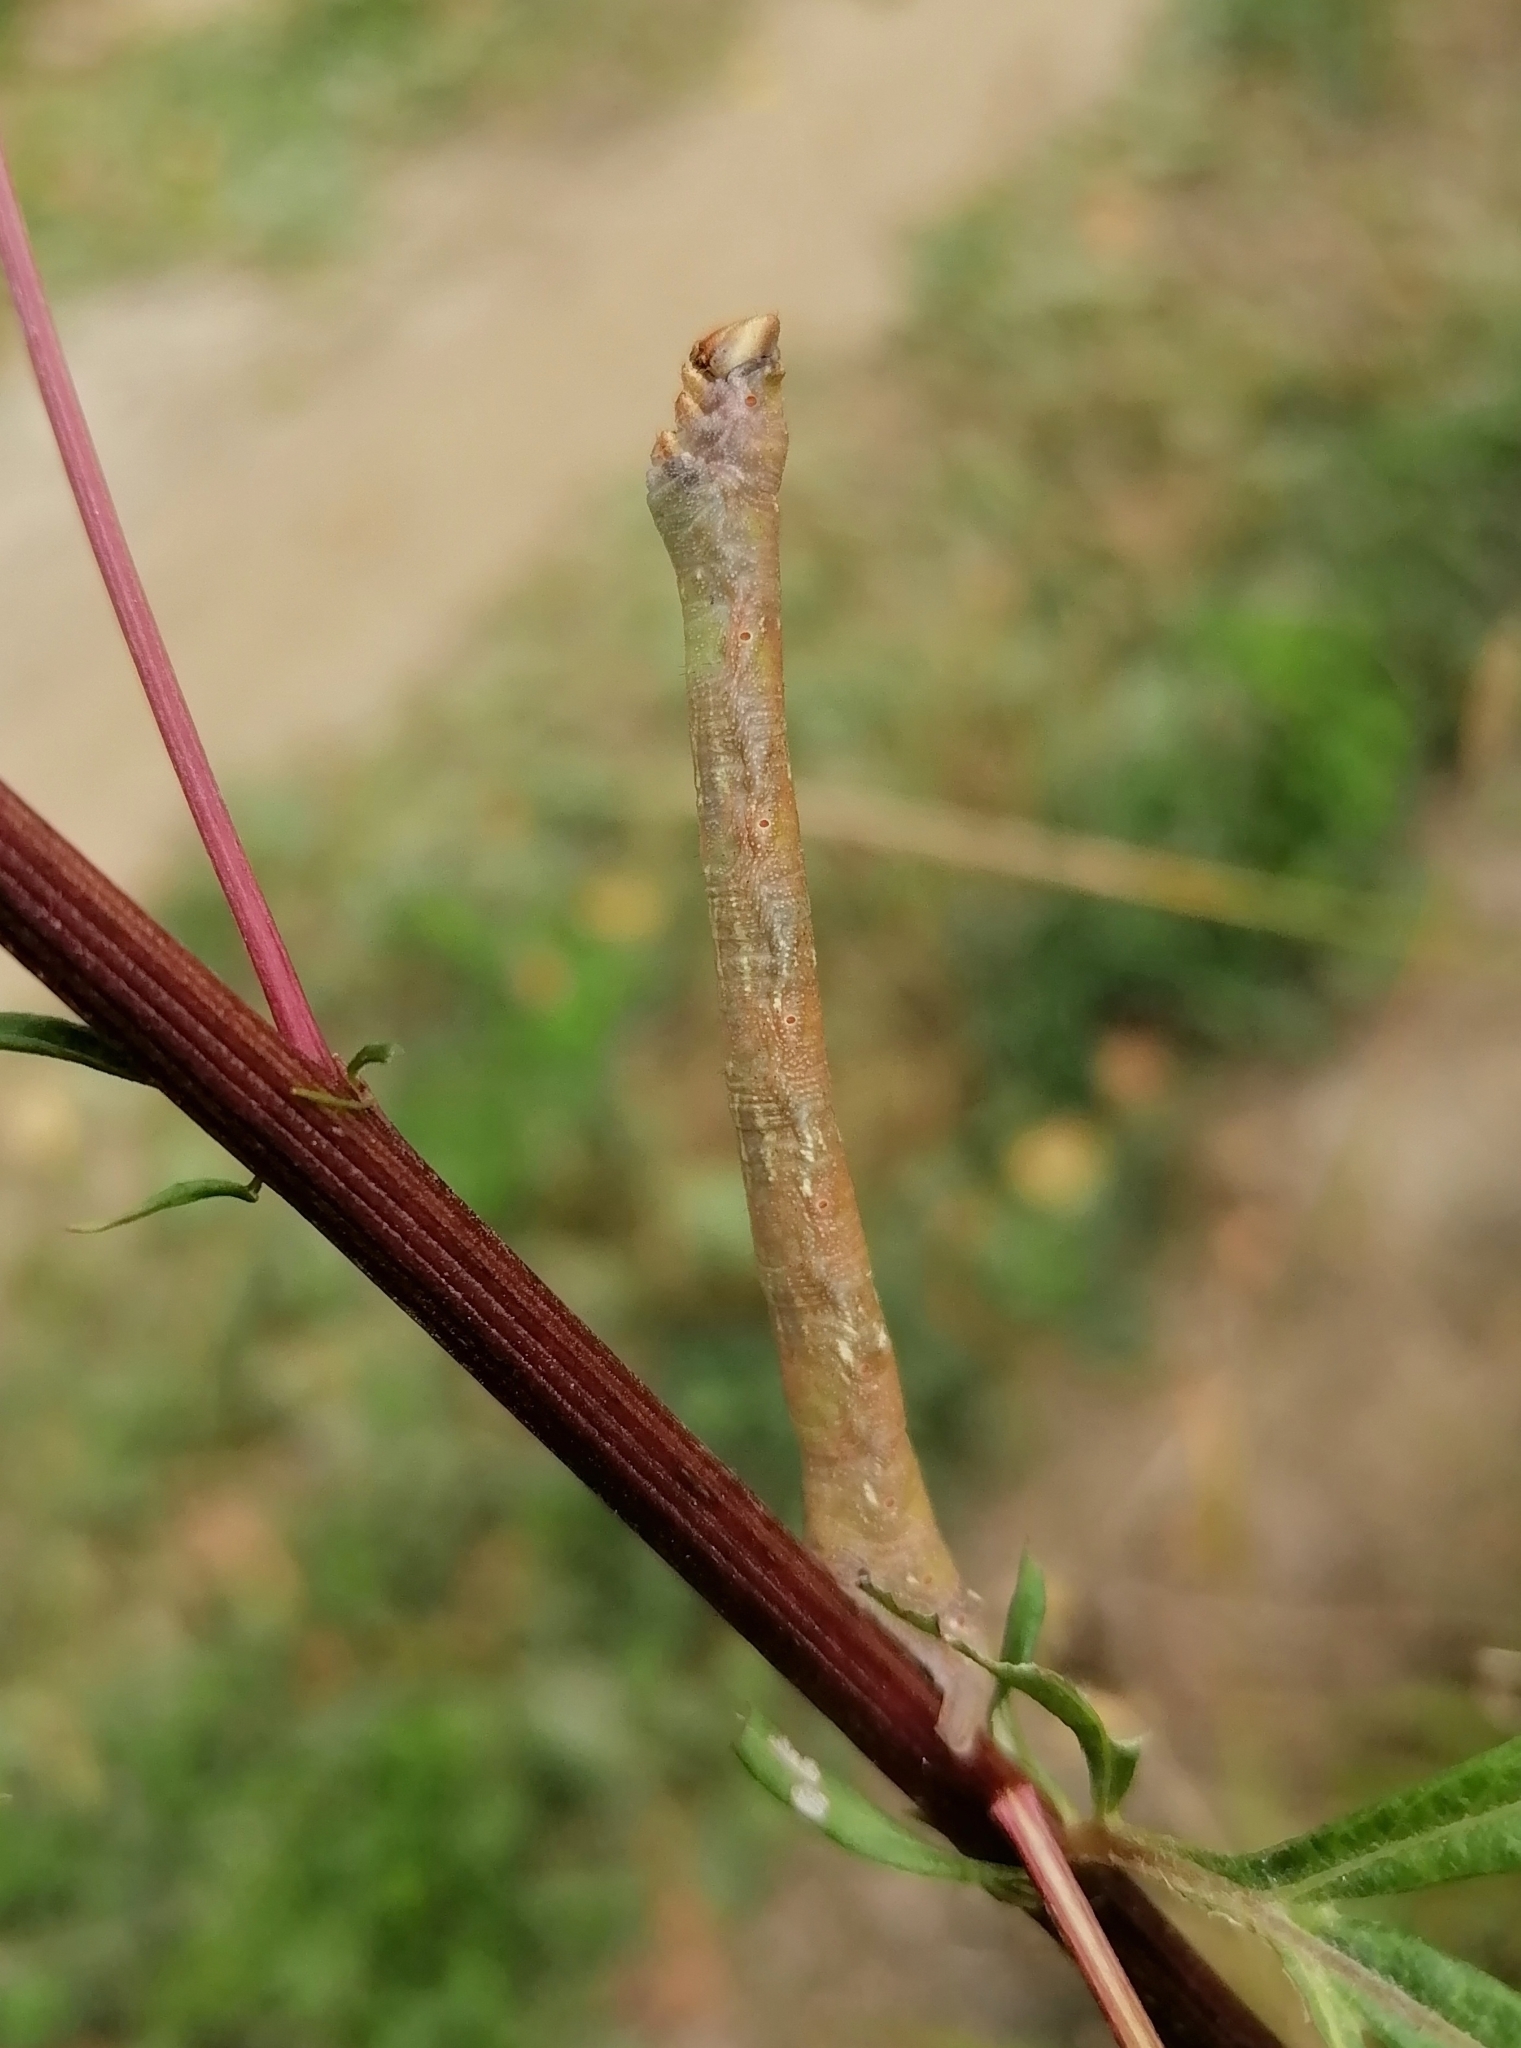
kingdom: Animalia
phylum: Arthropoda
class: Insecta
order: Lepidoptera
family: Geometridae
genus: Biston
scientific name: Biston betularia
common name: Peppered moth
